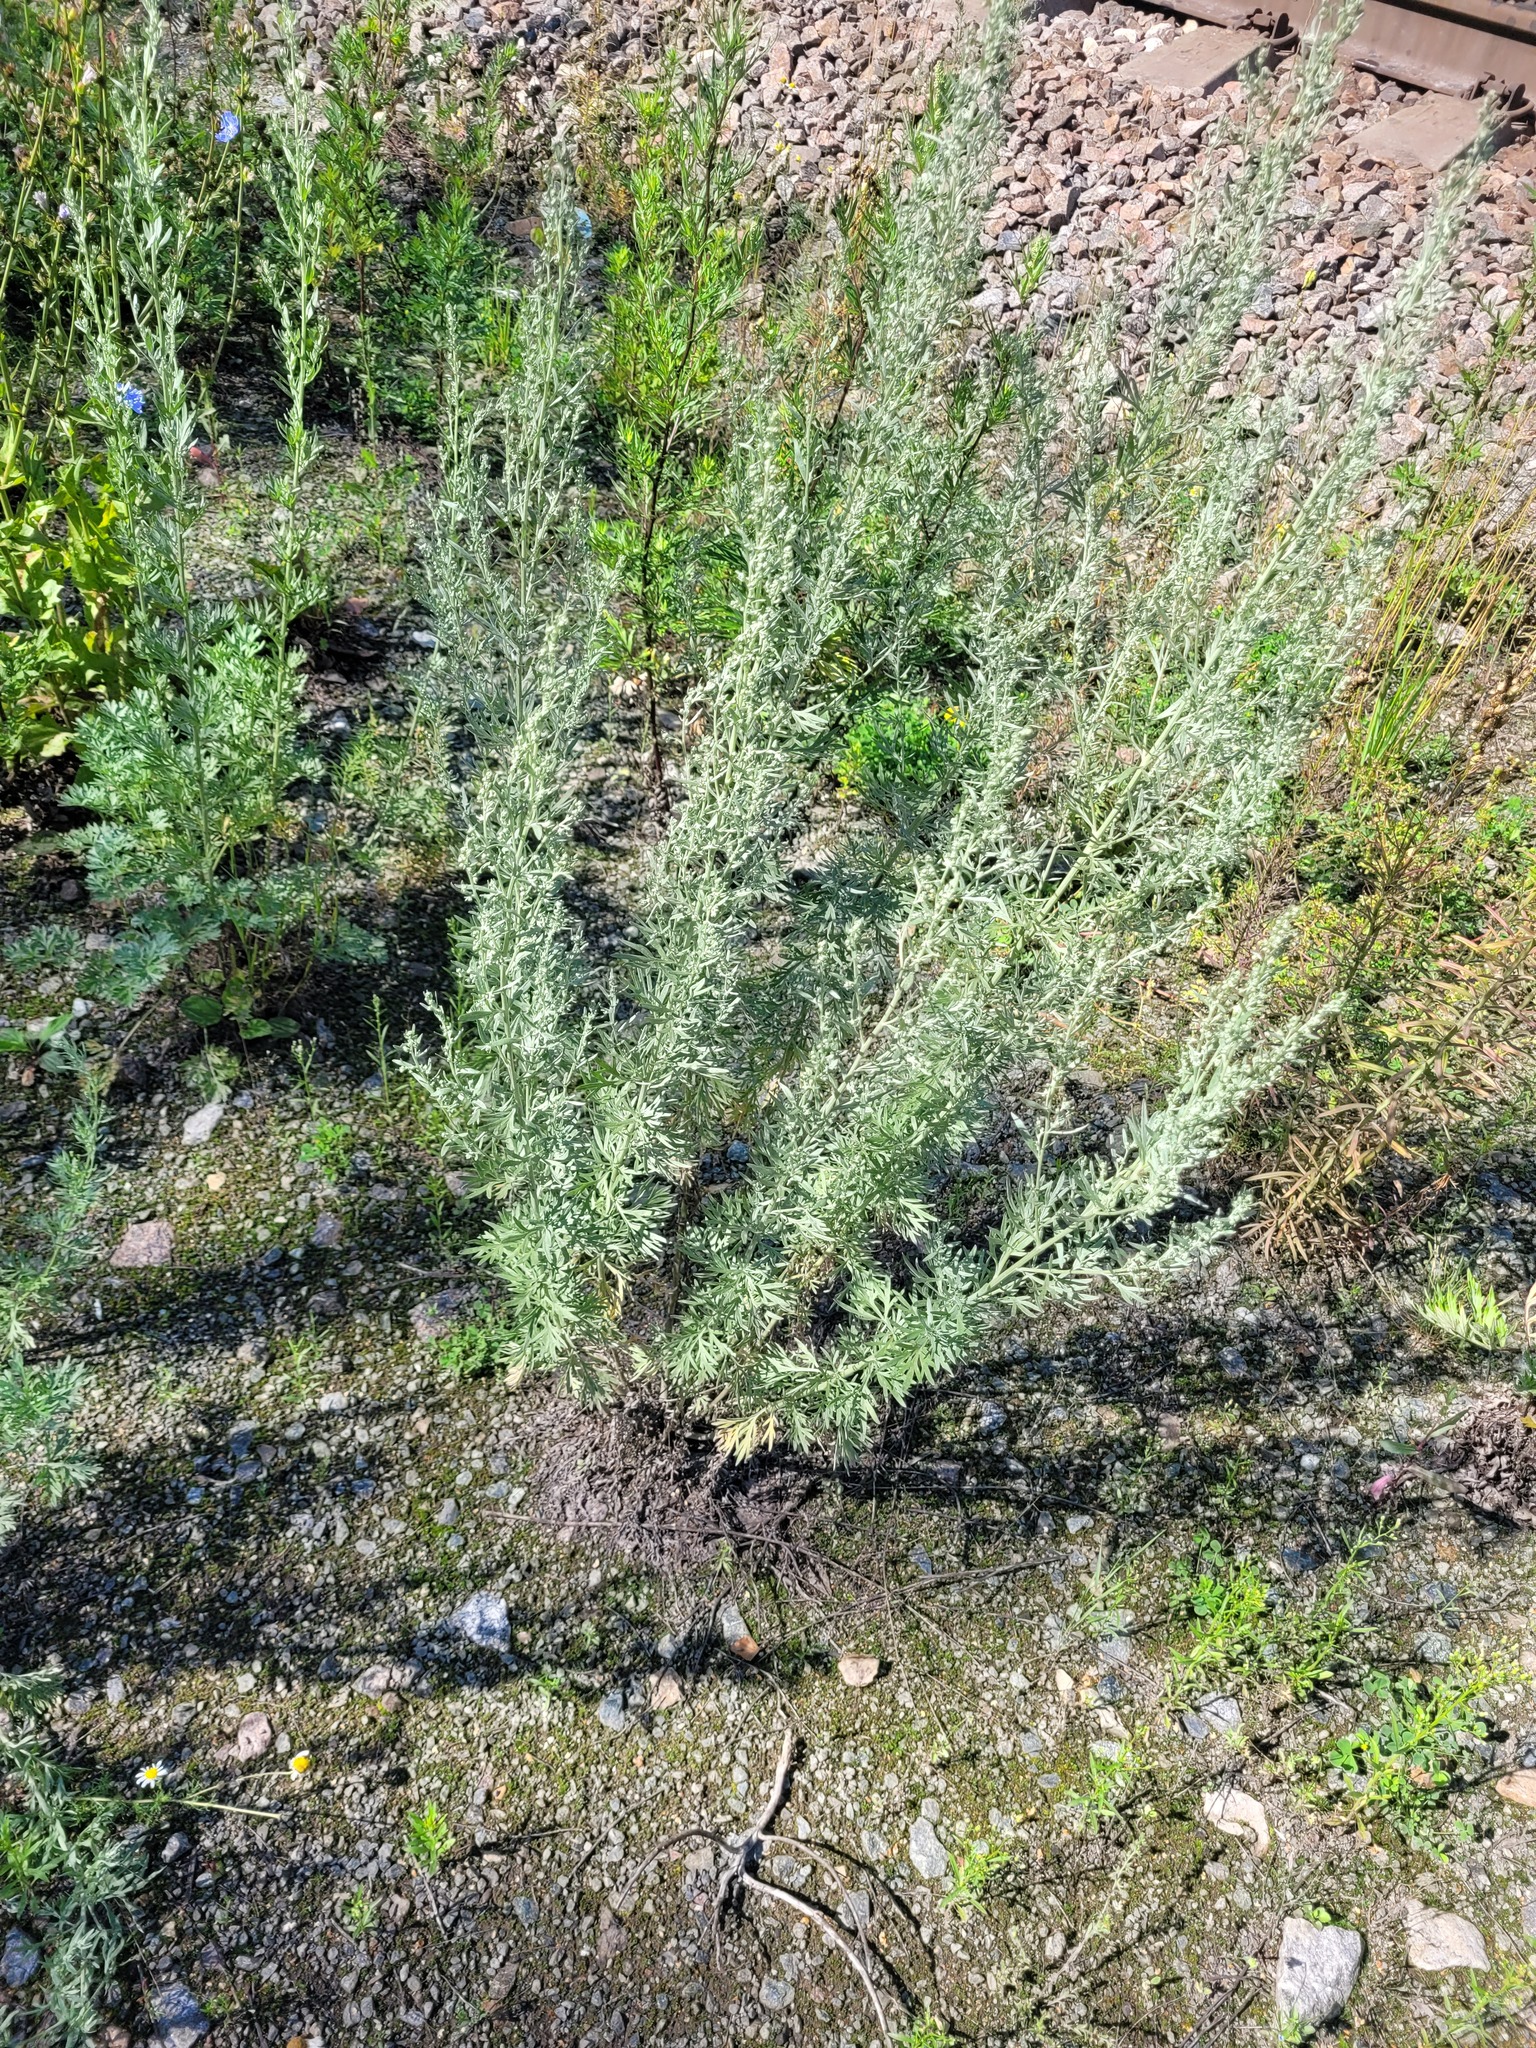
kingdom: Plantae
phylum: Tracheophyta
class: Magnoliopsida
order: Asterales
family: Asteraceae
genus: Artemisia
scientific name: Artemisia absinthium
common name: Wormwood
